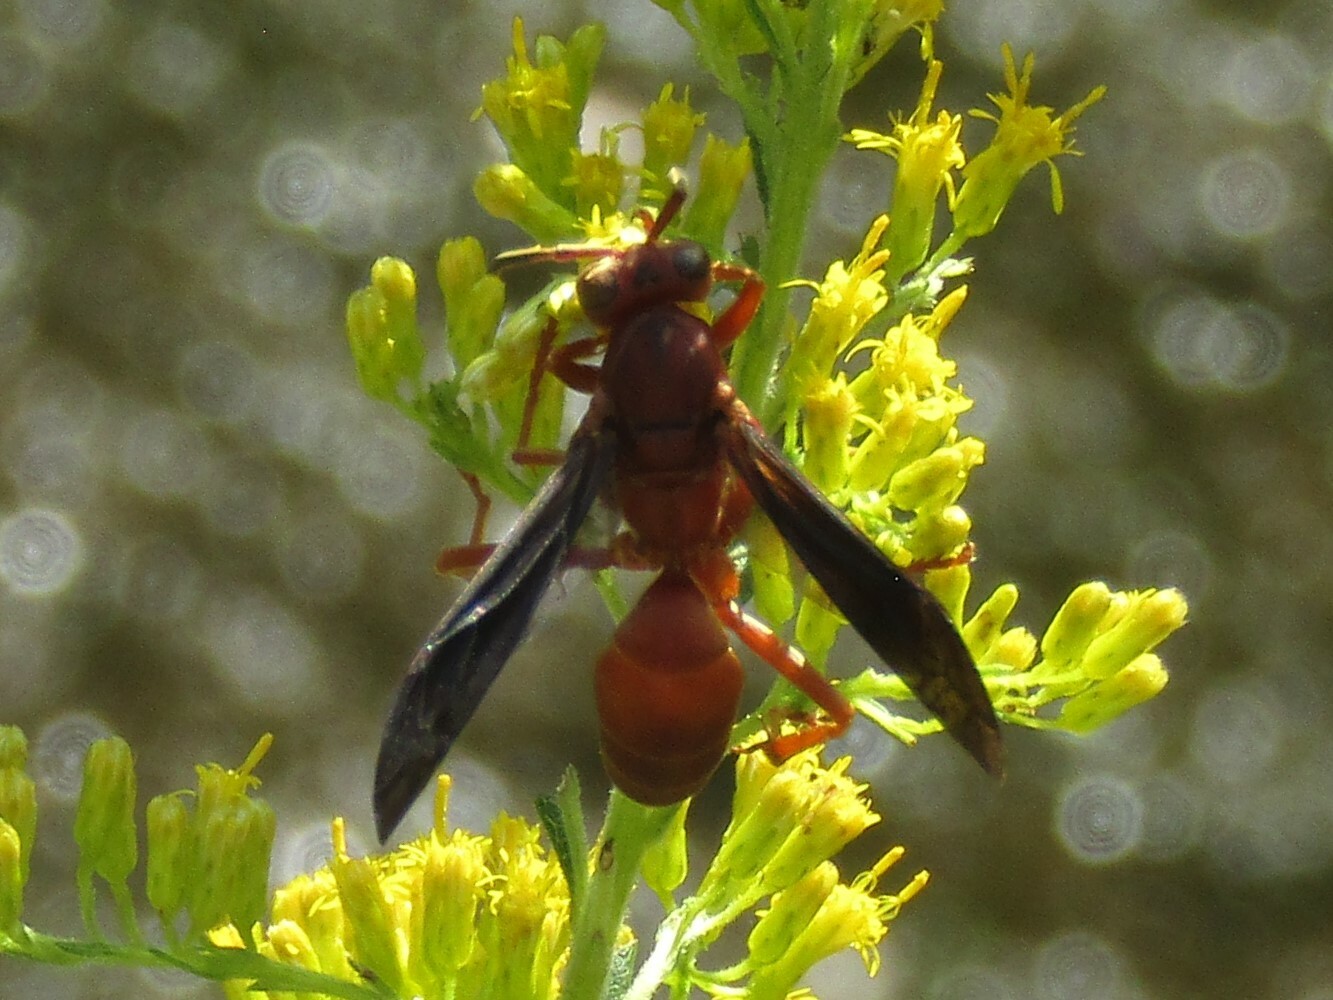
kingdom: Animalia
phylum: Arthropoda
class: Insecta
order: Hymenoptera
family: Vespidae
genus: Fuscopolistes
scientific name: Fuscopolistes
